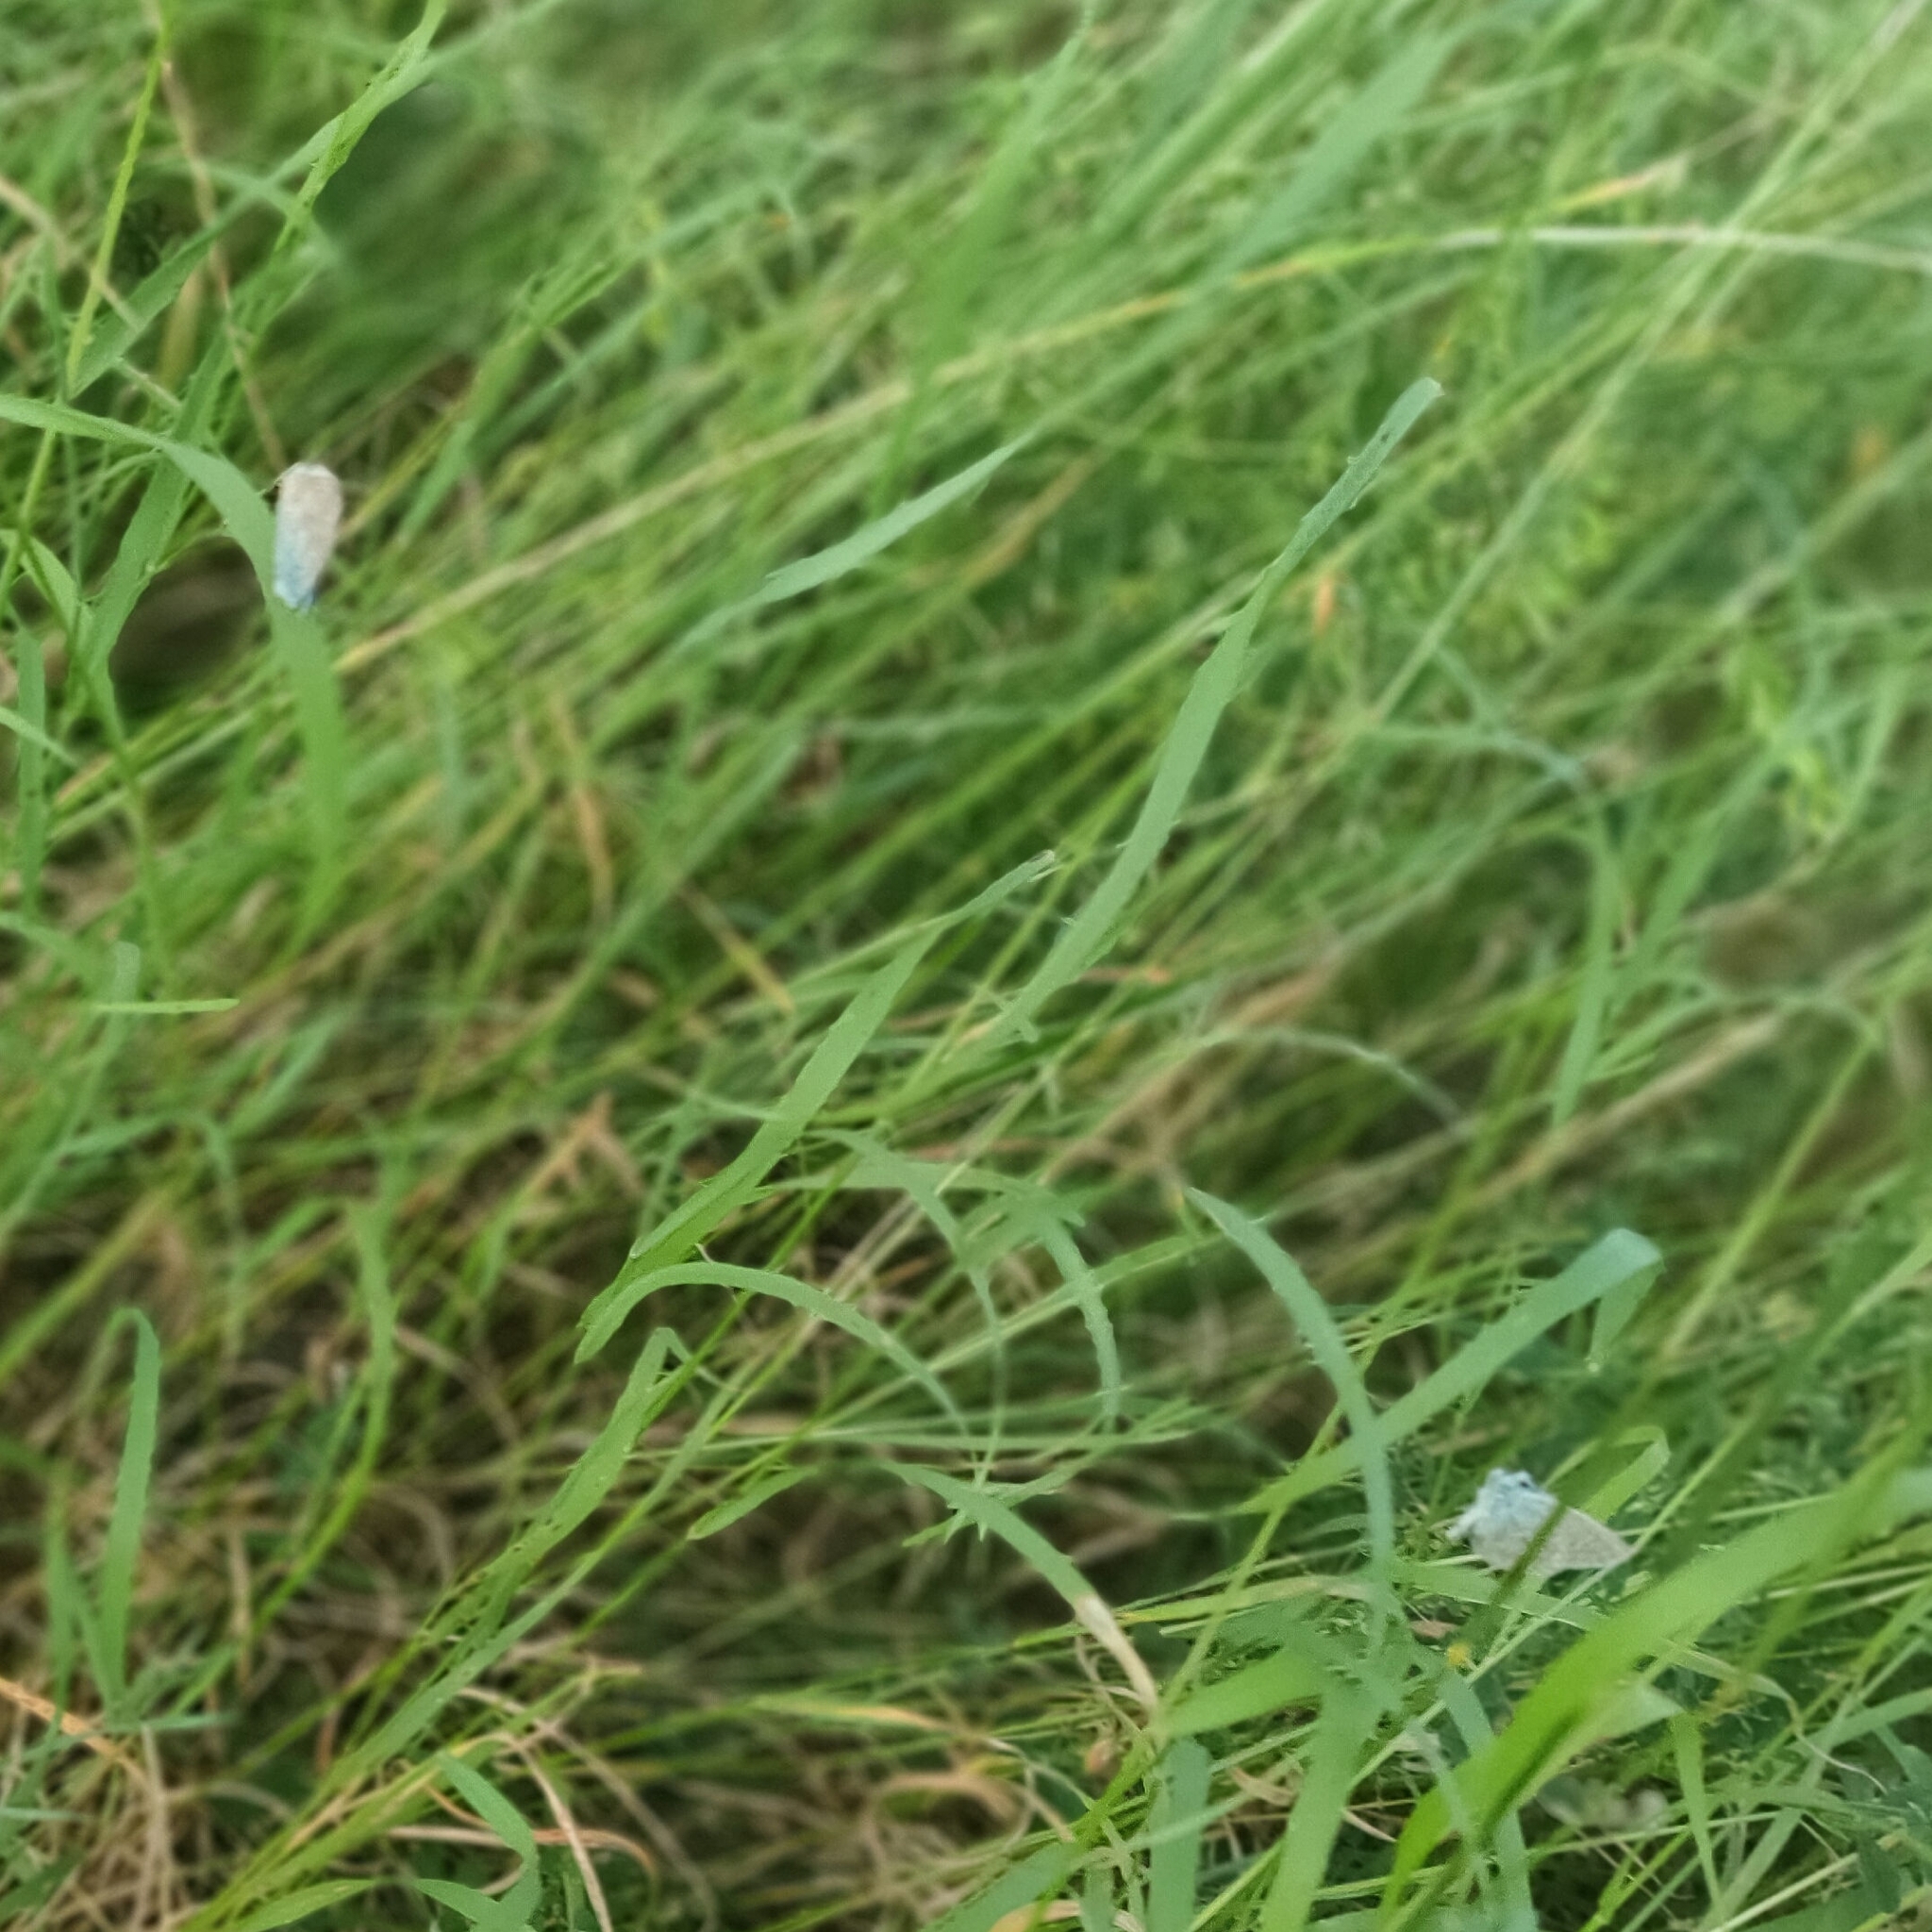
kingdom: Animalia
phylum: Arthropoda
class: Insecta
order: Lepidoptera
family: Lycaenidae
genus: Polyommatus
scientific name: Polyommatus icarus
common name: Common blue
